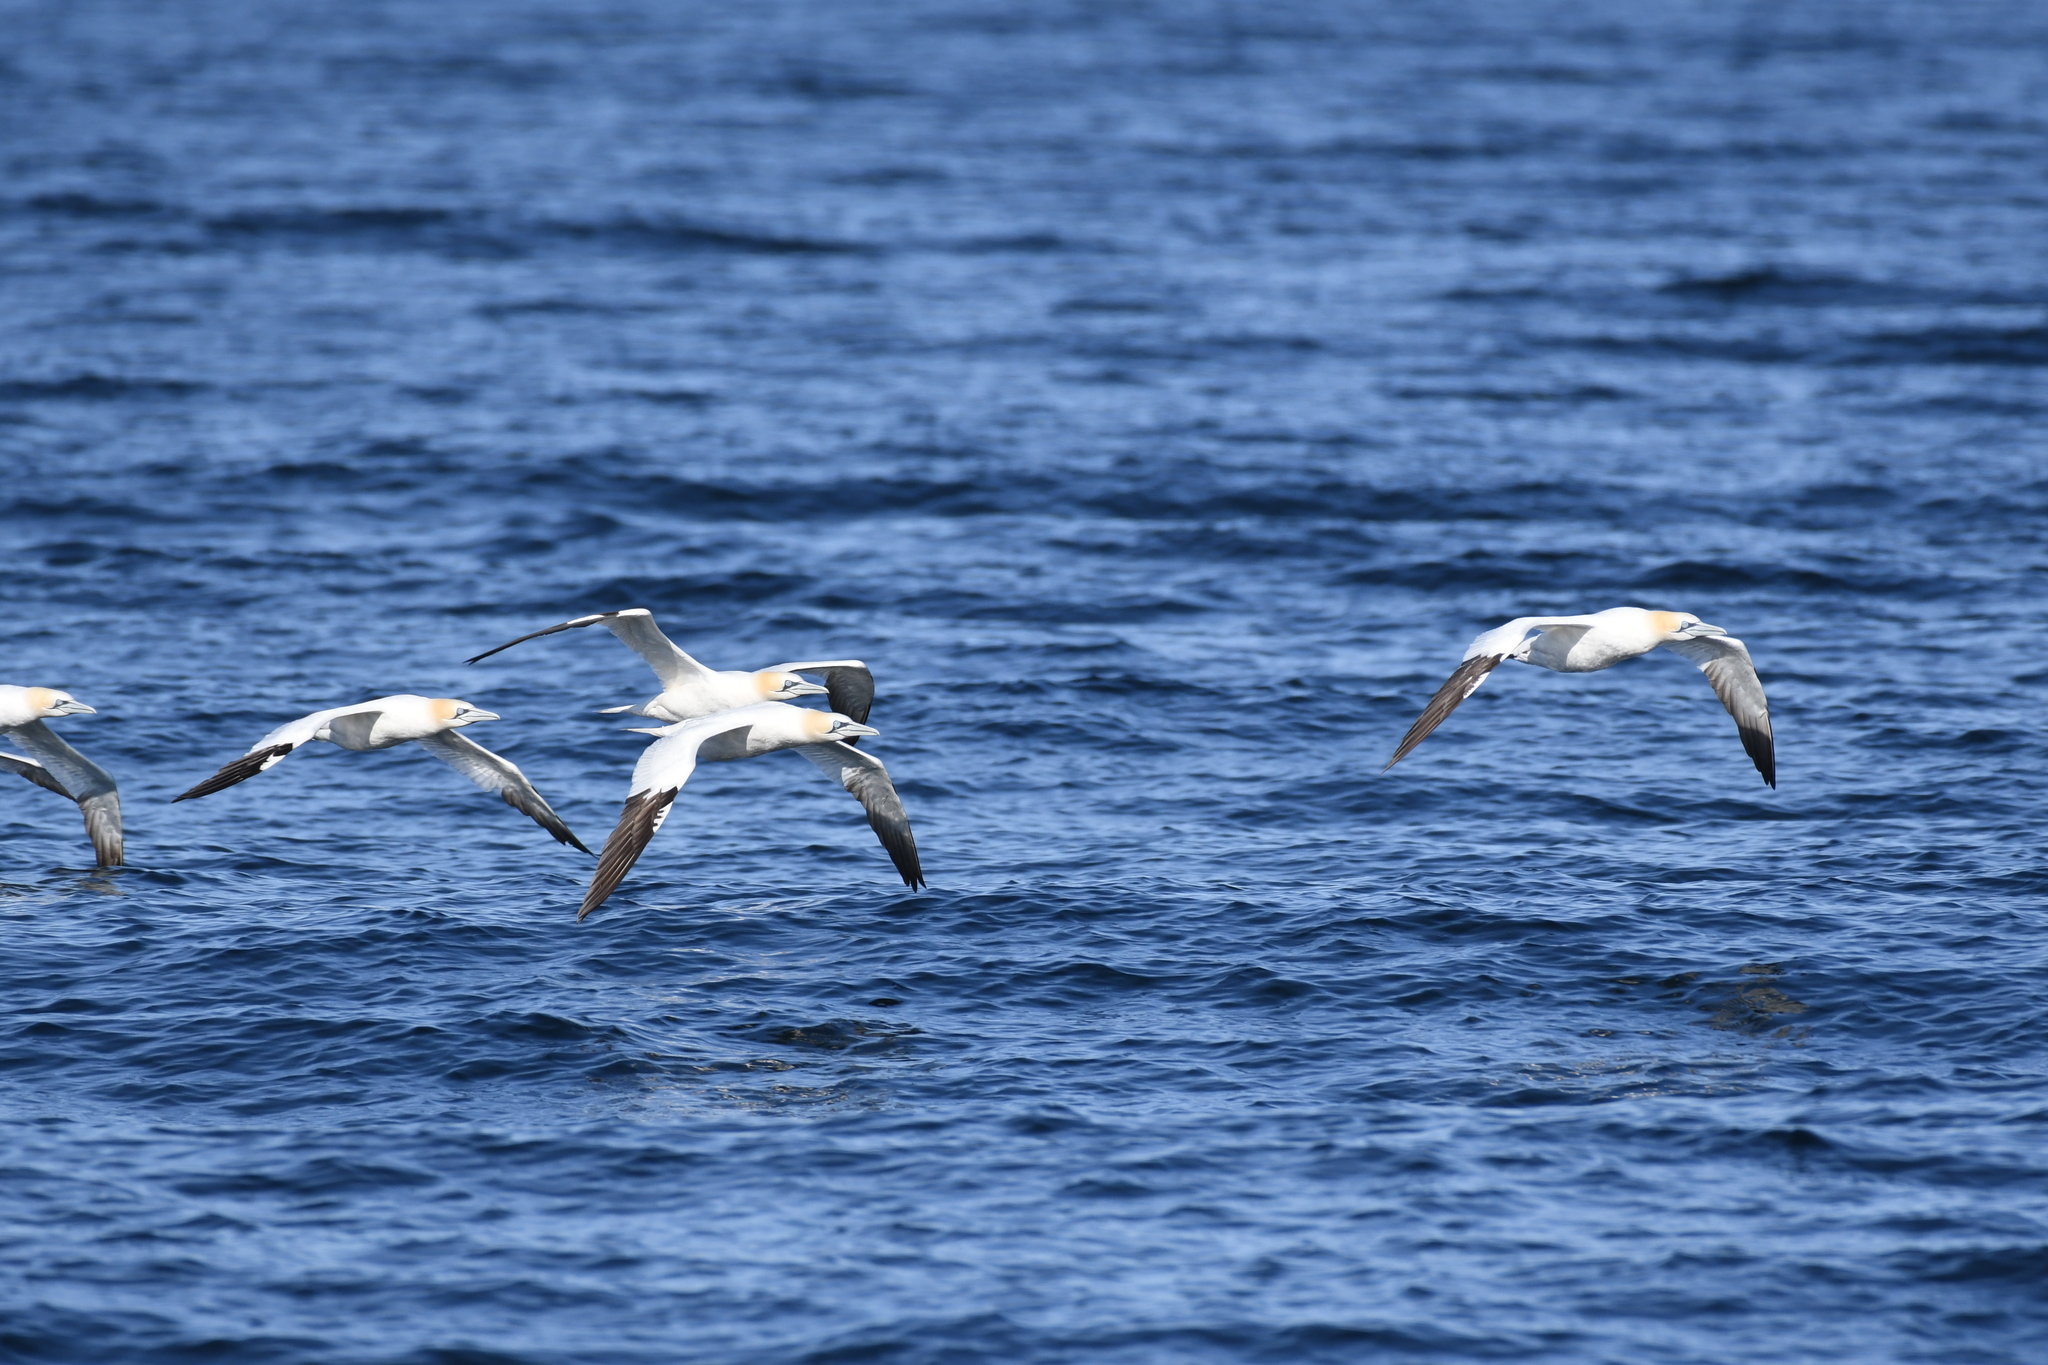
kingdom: Animalia
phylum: Chordata
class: Aves
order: Suliformes
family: Sulidae
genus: Morus
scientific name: Morus bassanus
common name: Northern gannet
